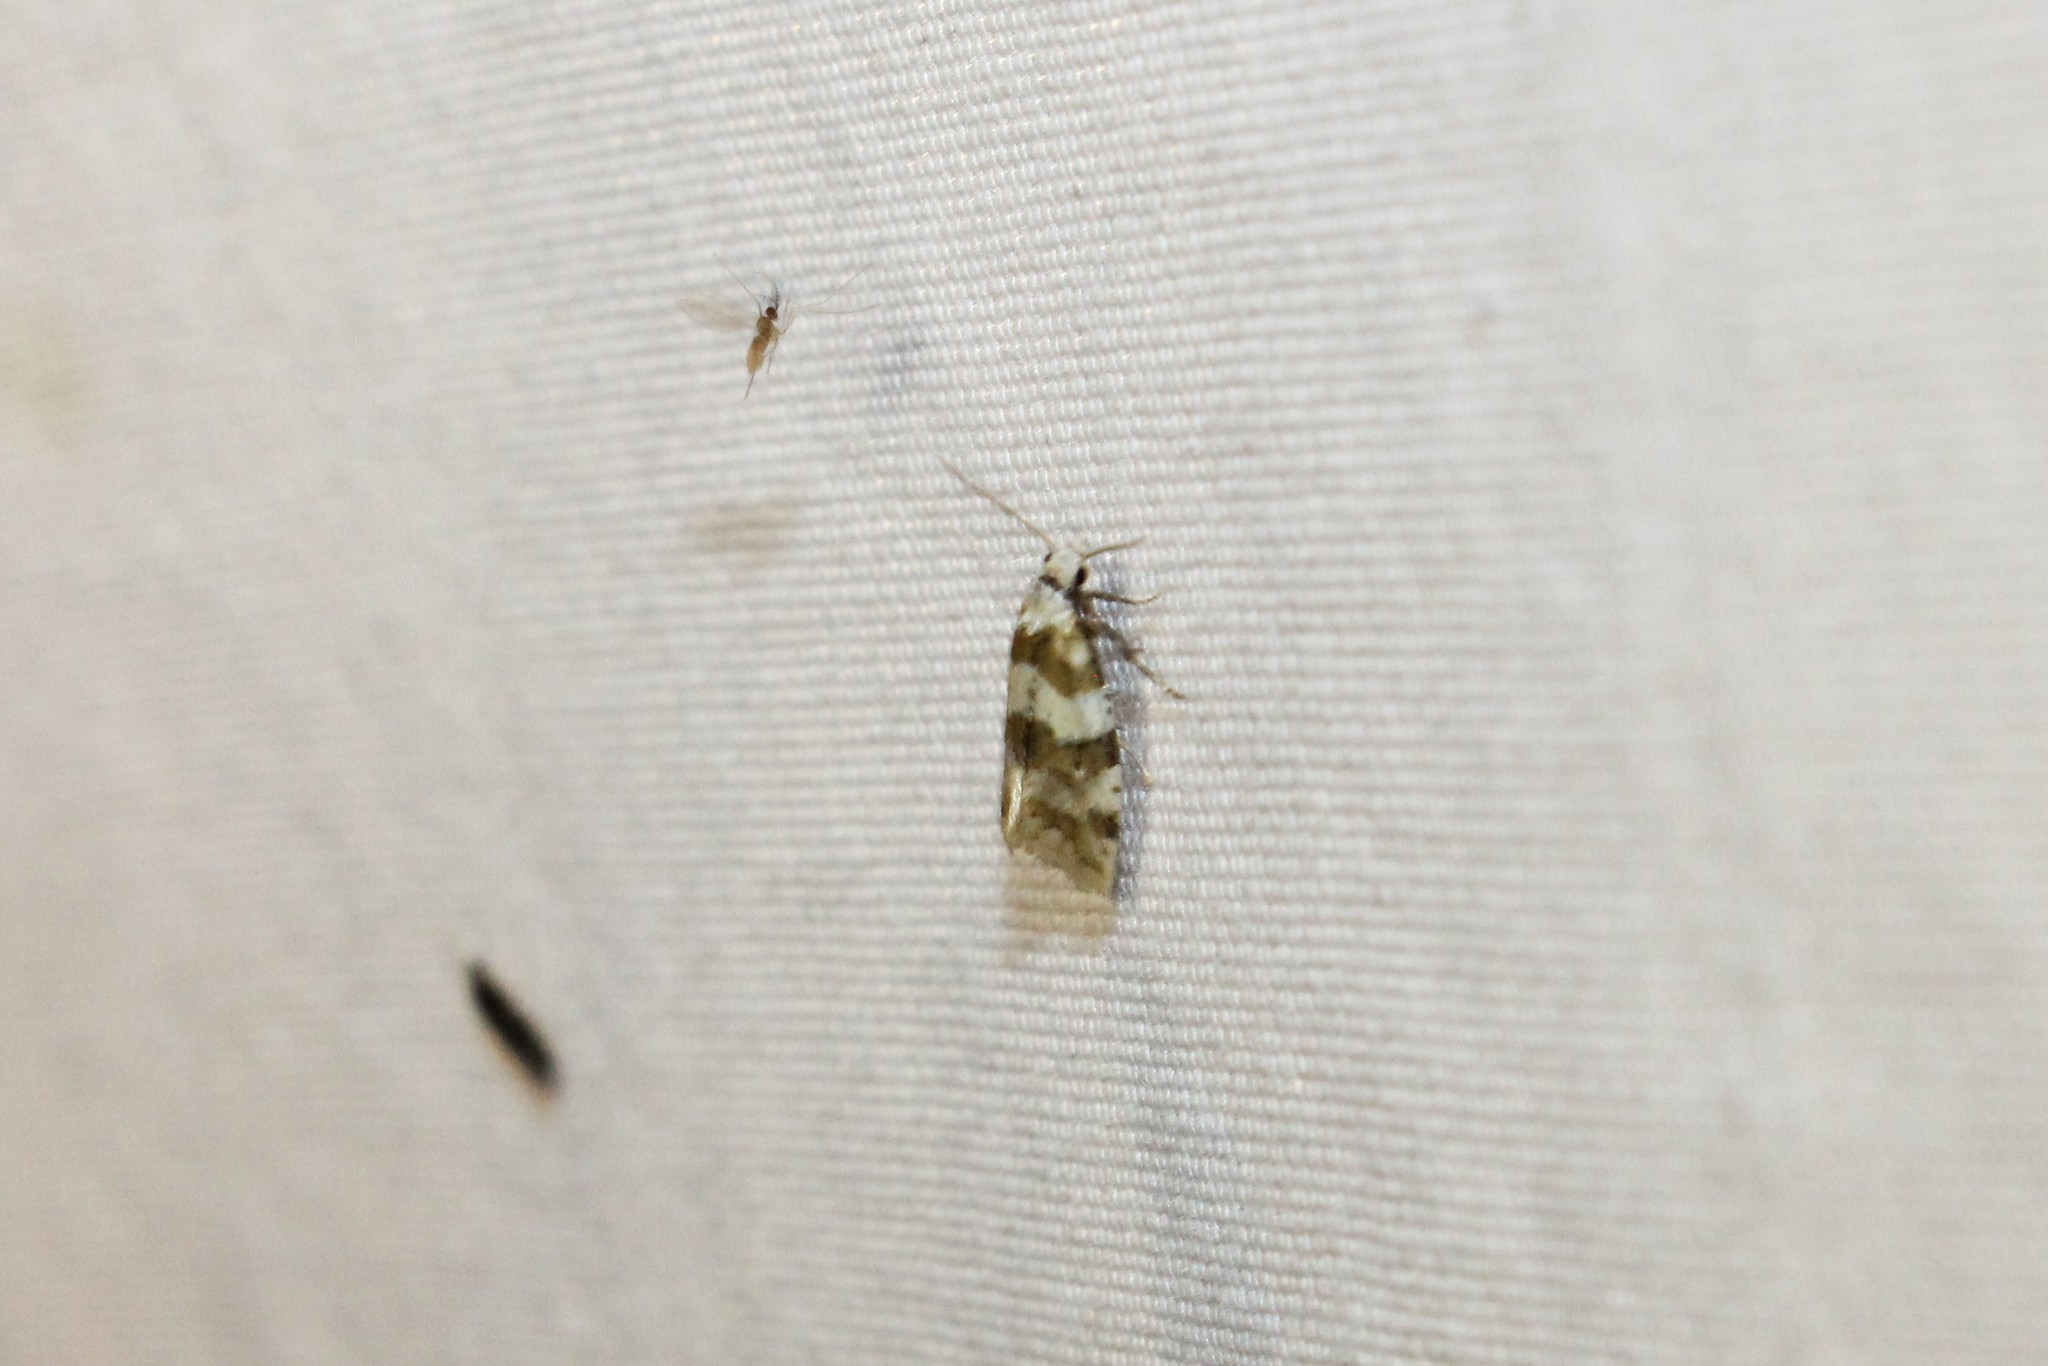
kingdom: Animalia
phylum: Arthropoda
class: Insecta
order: Lepidoptera
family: Tortricidae
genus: Aethes
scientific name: Aethes argentilimitana
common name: Silver-bordered aethes
